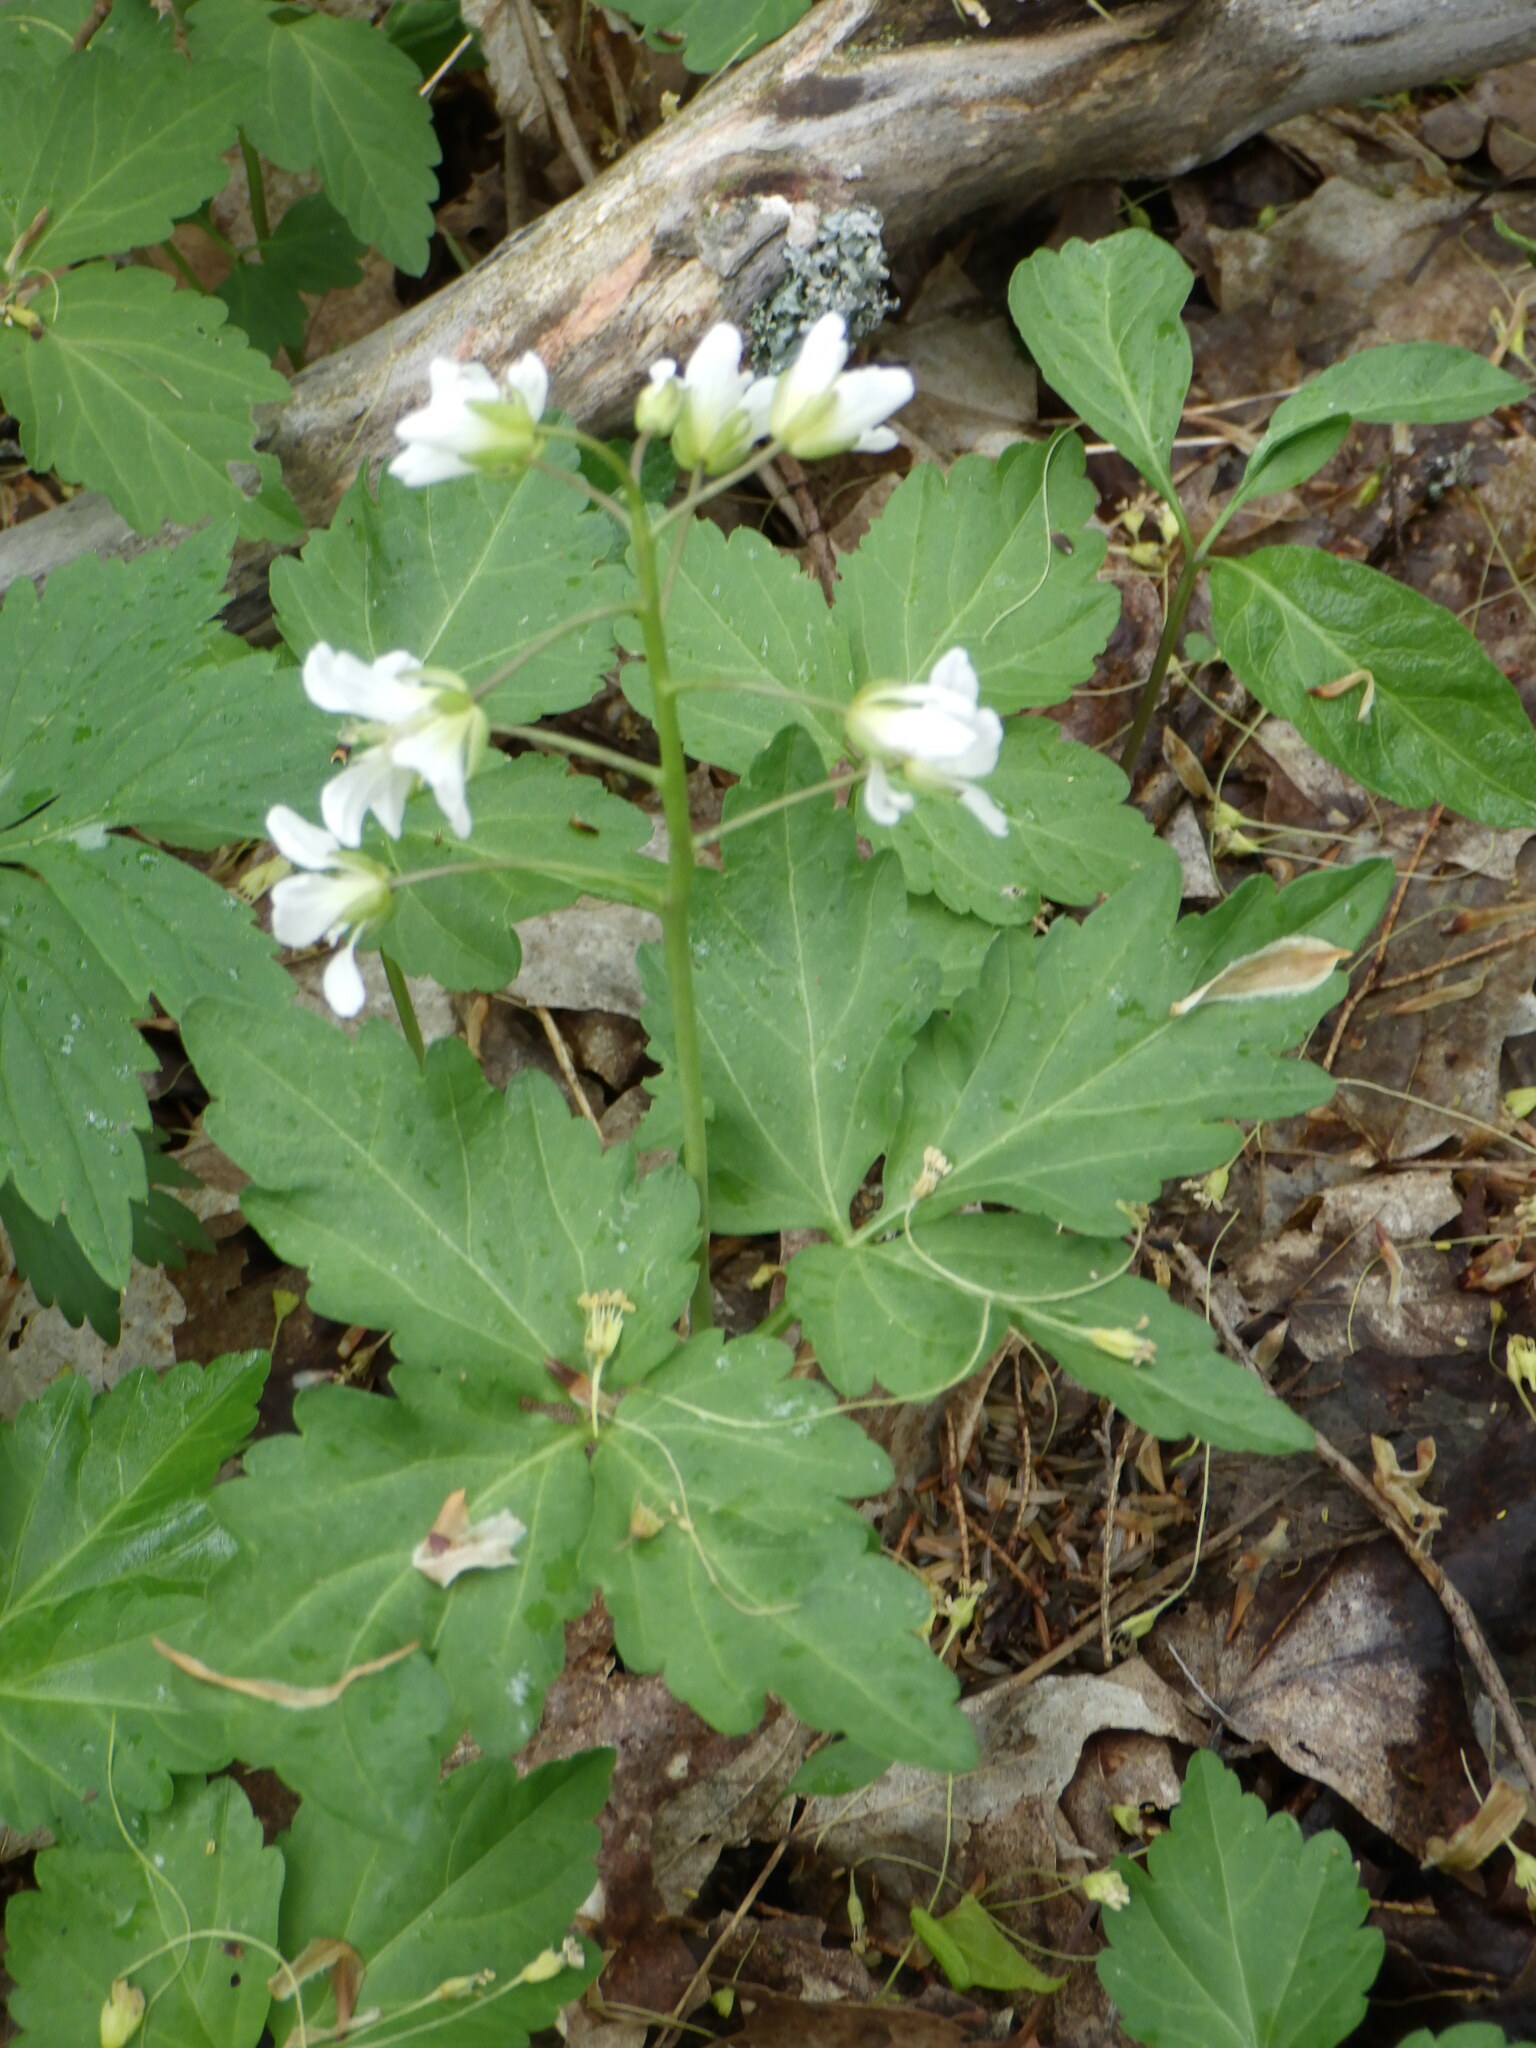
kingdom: Plantae
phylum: Tracheophyta
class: Magnoliopsida
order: Brassicales
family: Brassicaceae
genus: Cardamine
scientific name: Cardamine diphylla
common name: Broad-leaved toothwort
